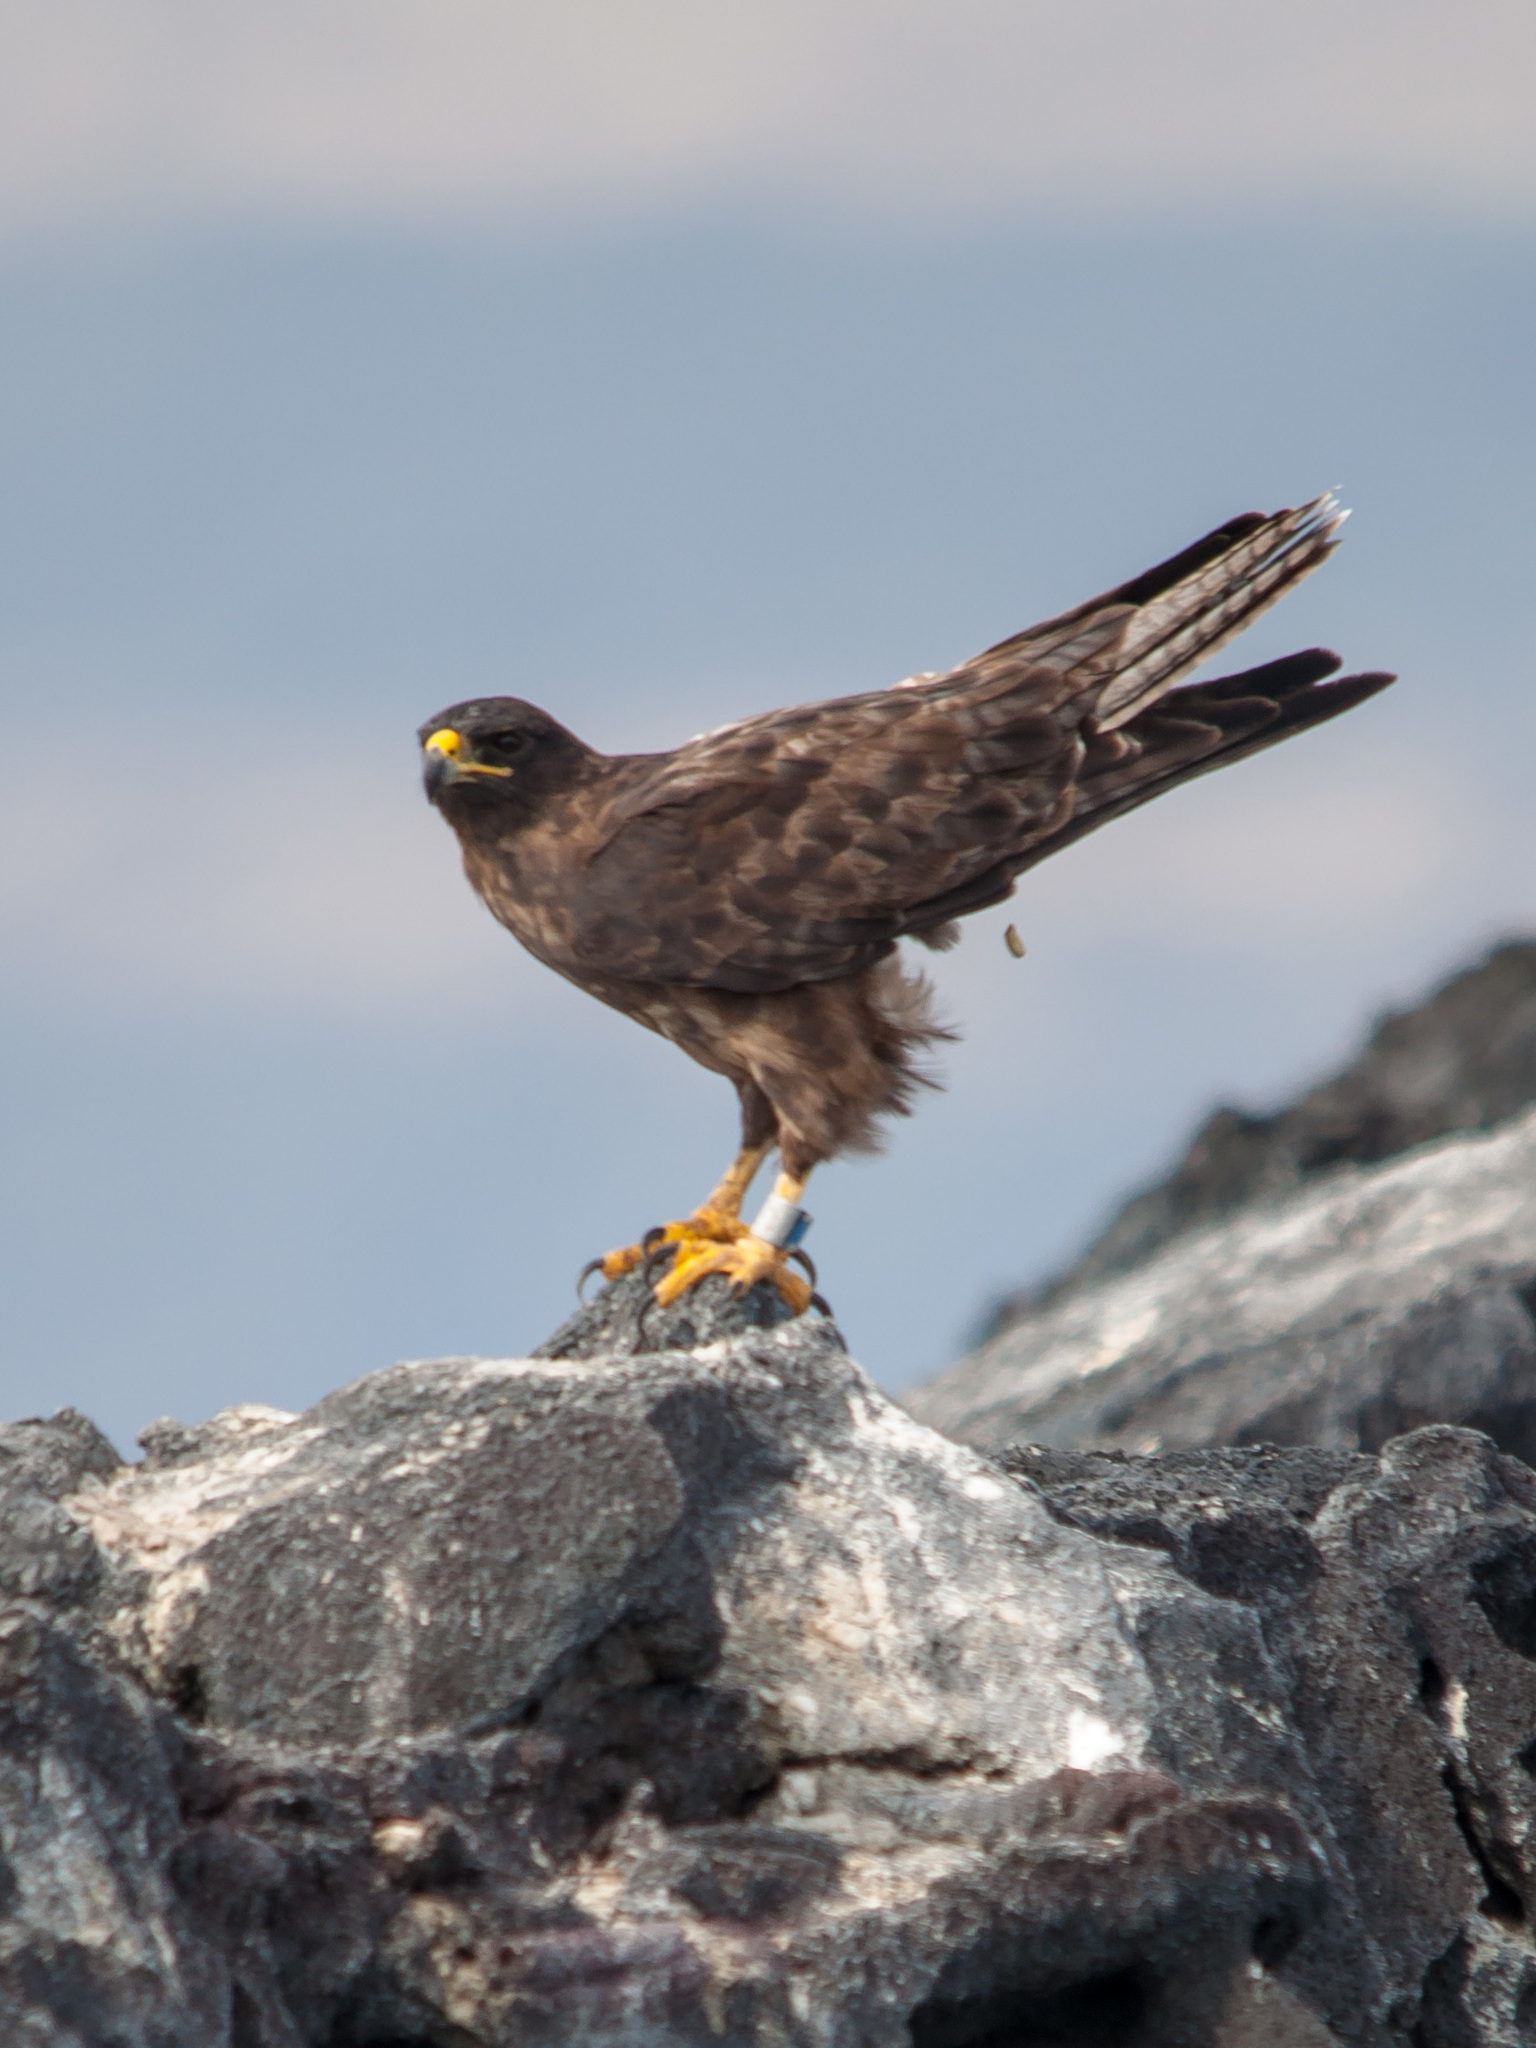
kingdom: Animalia
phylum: Chordata
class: Aves
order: Accipitriformes
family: Accipitridae
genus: Buteo
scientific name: Buteo galapagoensis
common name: Galapagos hawk
